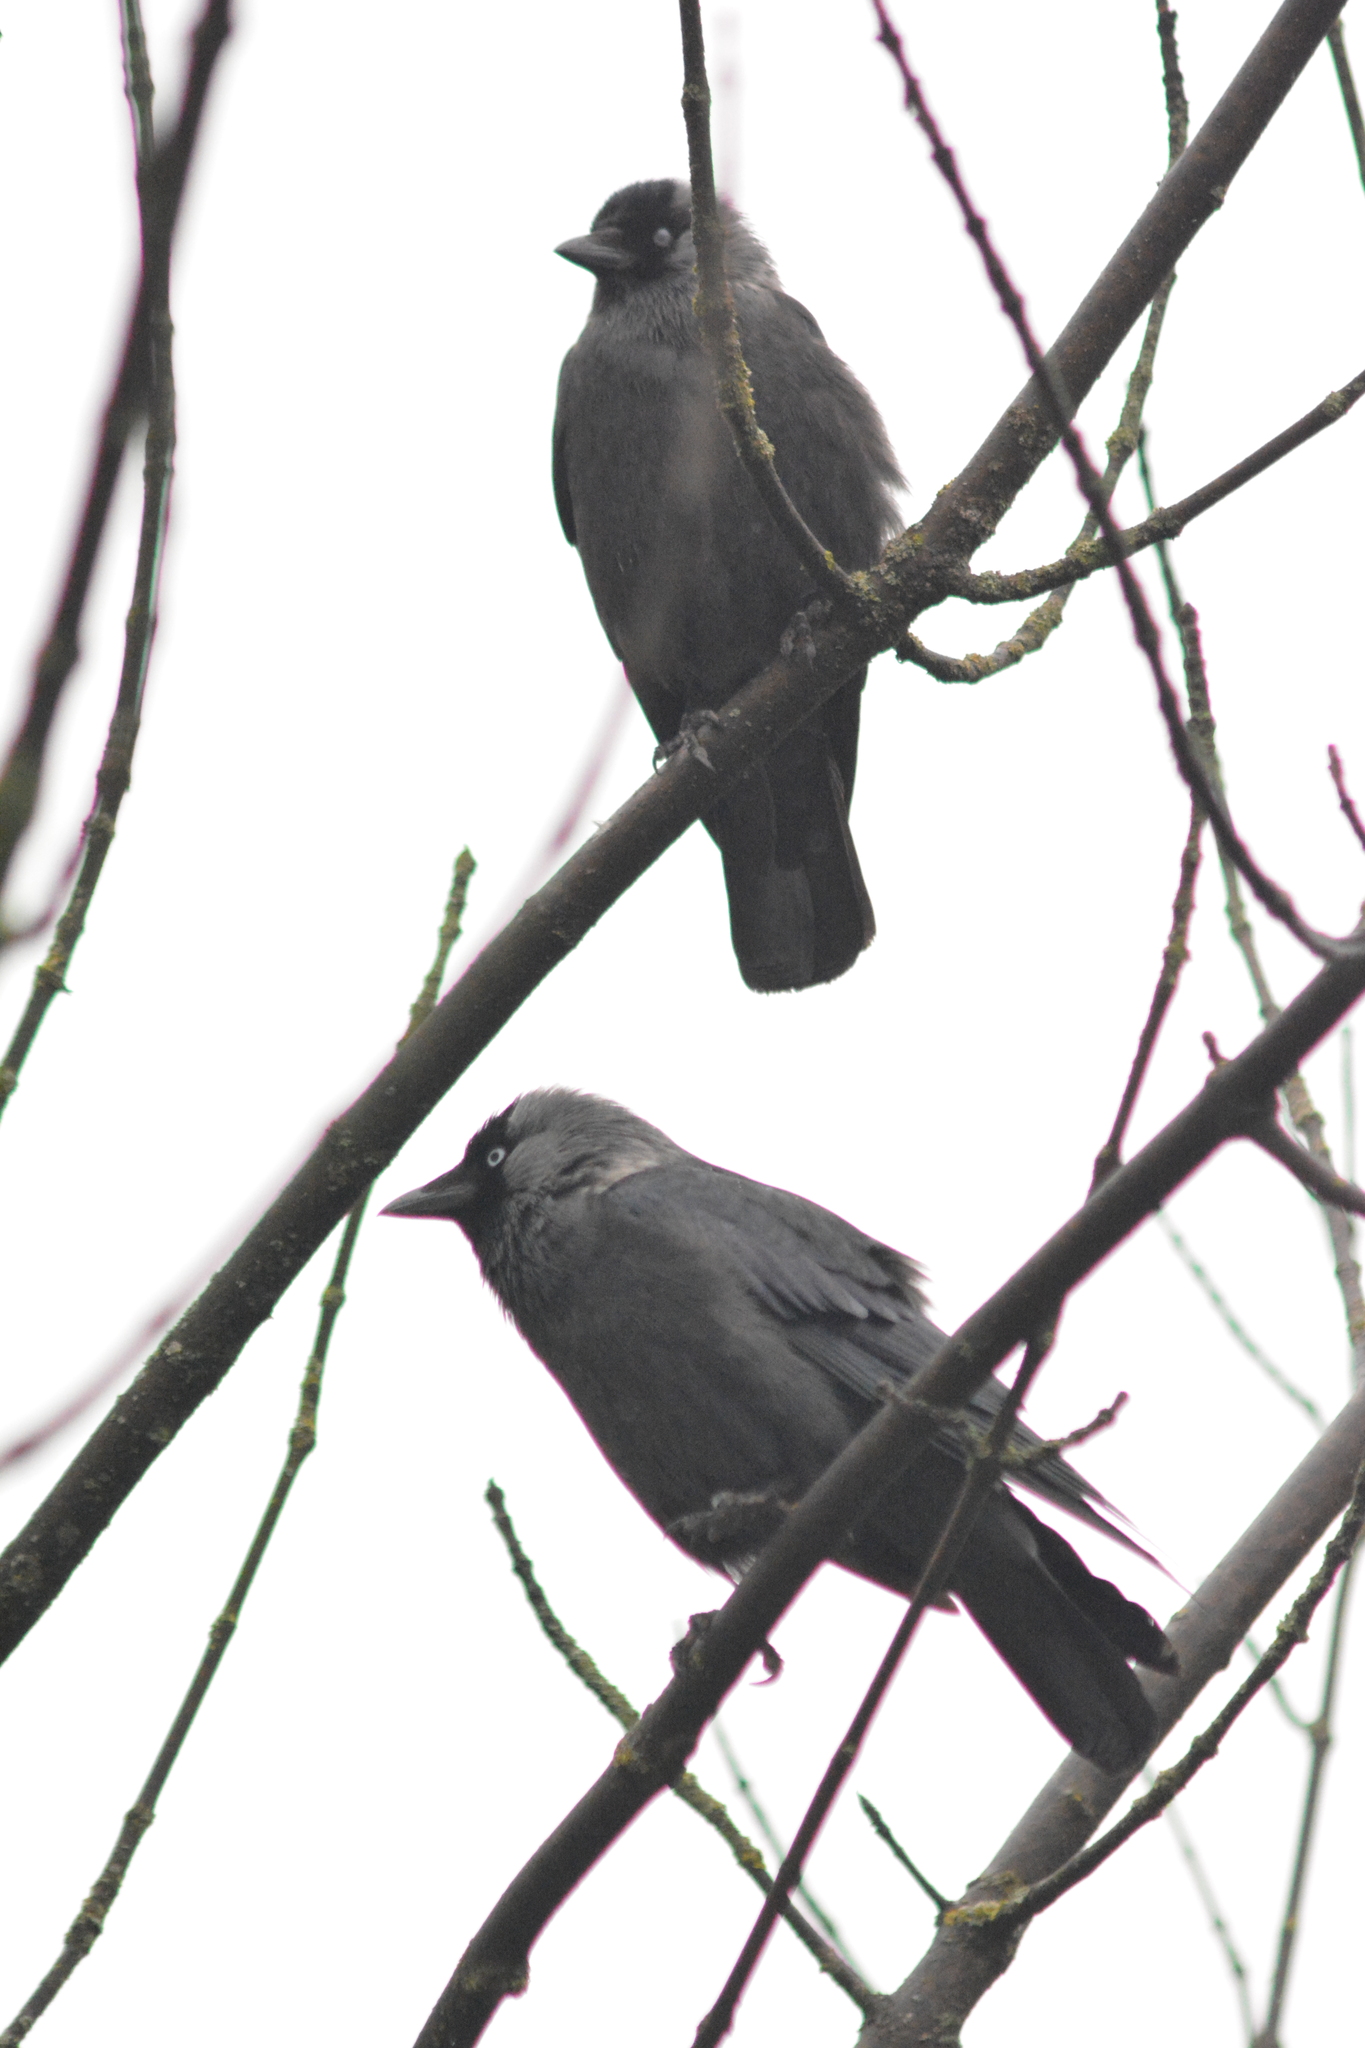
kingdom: Animalia
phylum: Chordata
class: Aves
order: Passeriformes
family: Corvidae
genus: Coloeus
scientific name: Coloeus monedula
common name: Western jackdaw
